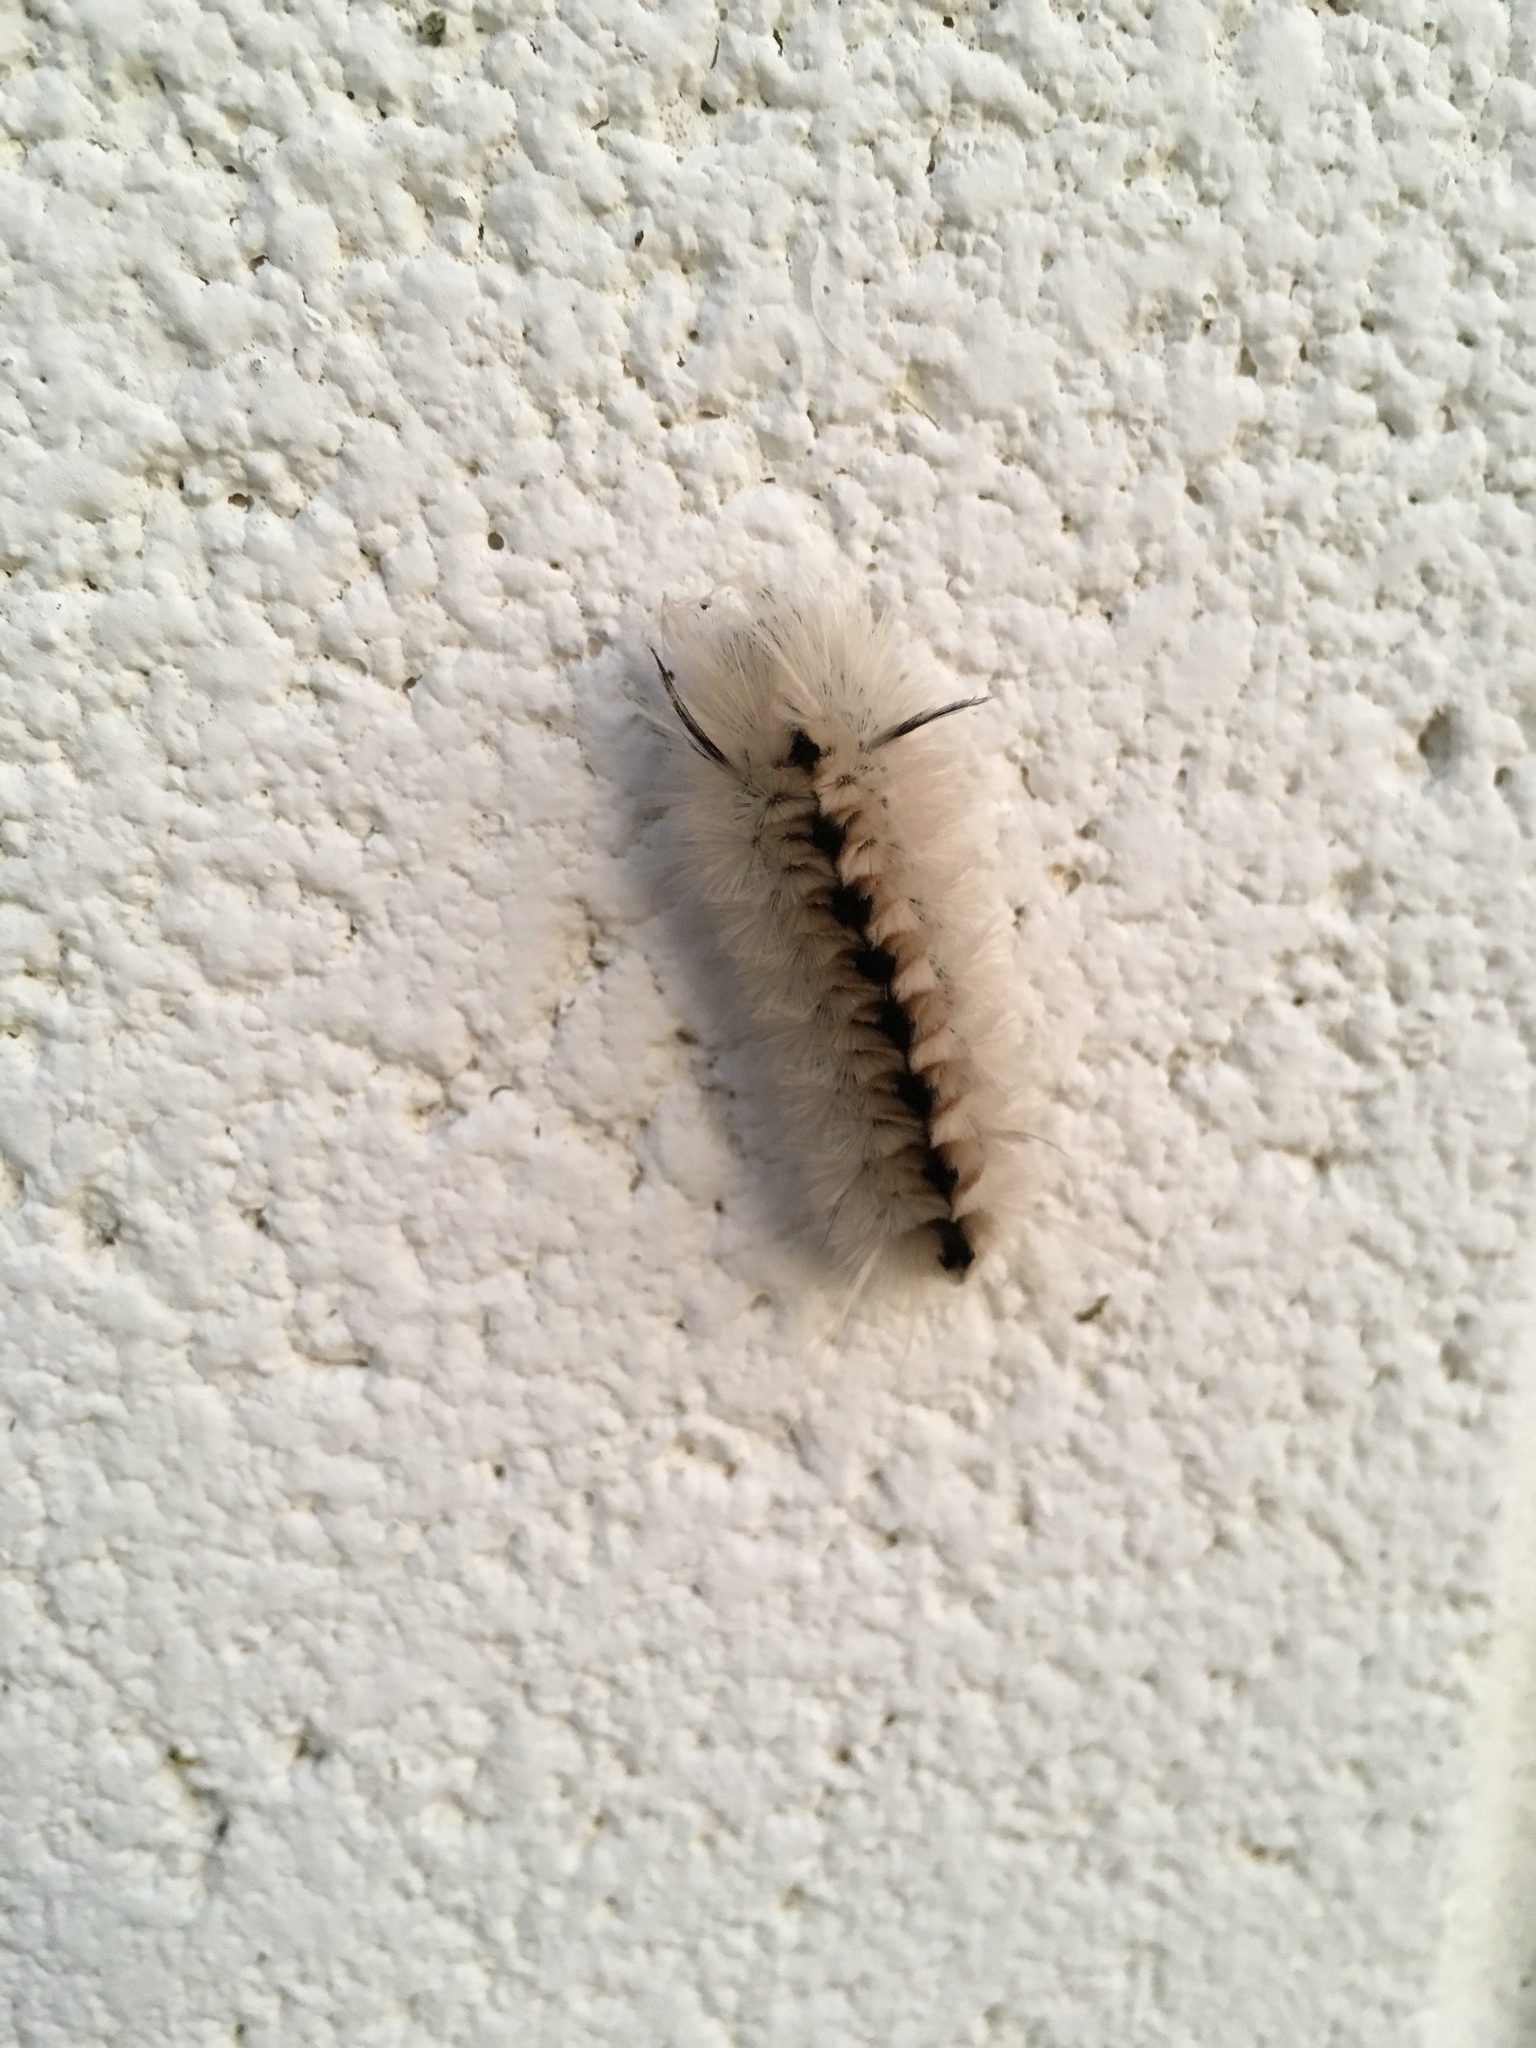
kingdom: Animalia
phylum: Arthropoda
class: Insecta
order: Lepidoptera
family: Erebidae
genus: Lophocampa
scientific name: Lophocampa caryae
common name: Hickory tussock moth
